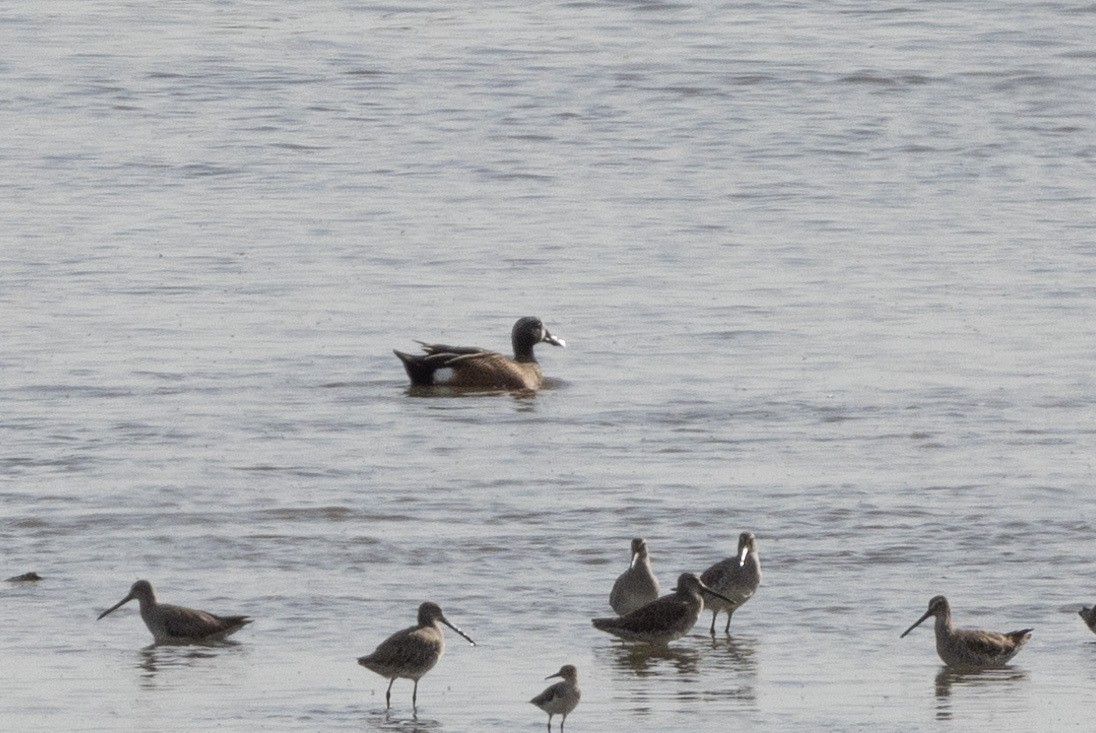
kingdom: Animalia
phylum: Chordata
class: Aves
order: Anseriformes
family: Anatidae
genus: Spatula
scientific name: Spatula discors
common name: Blue-winged teal
